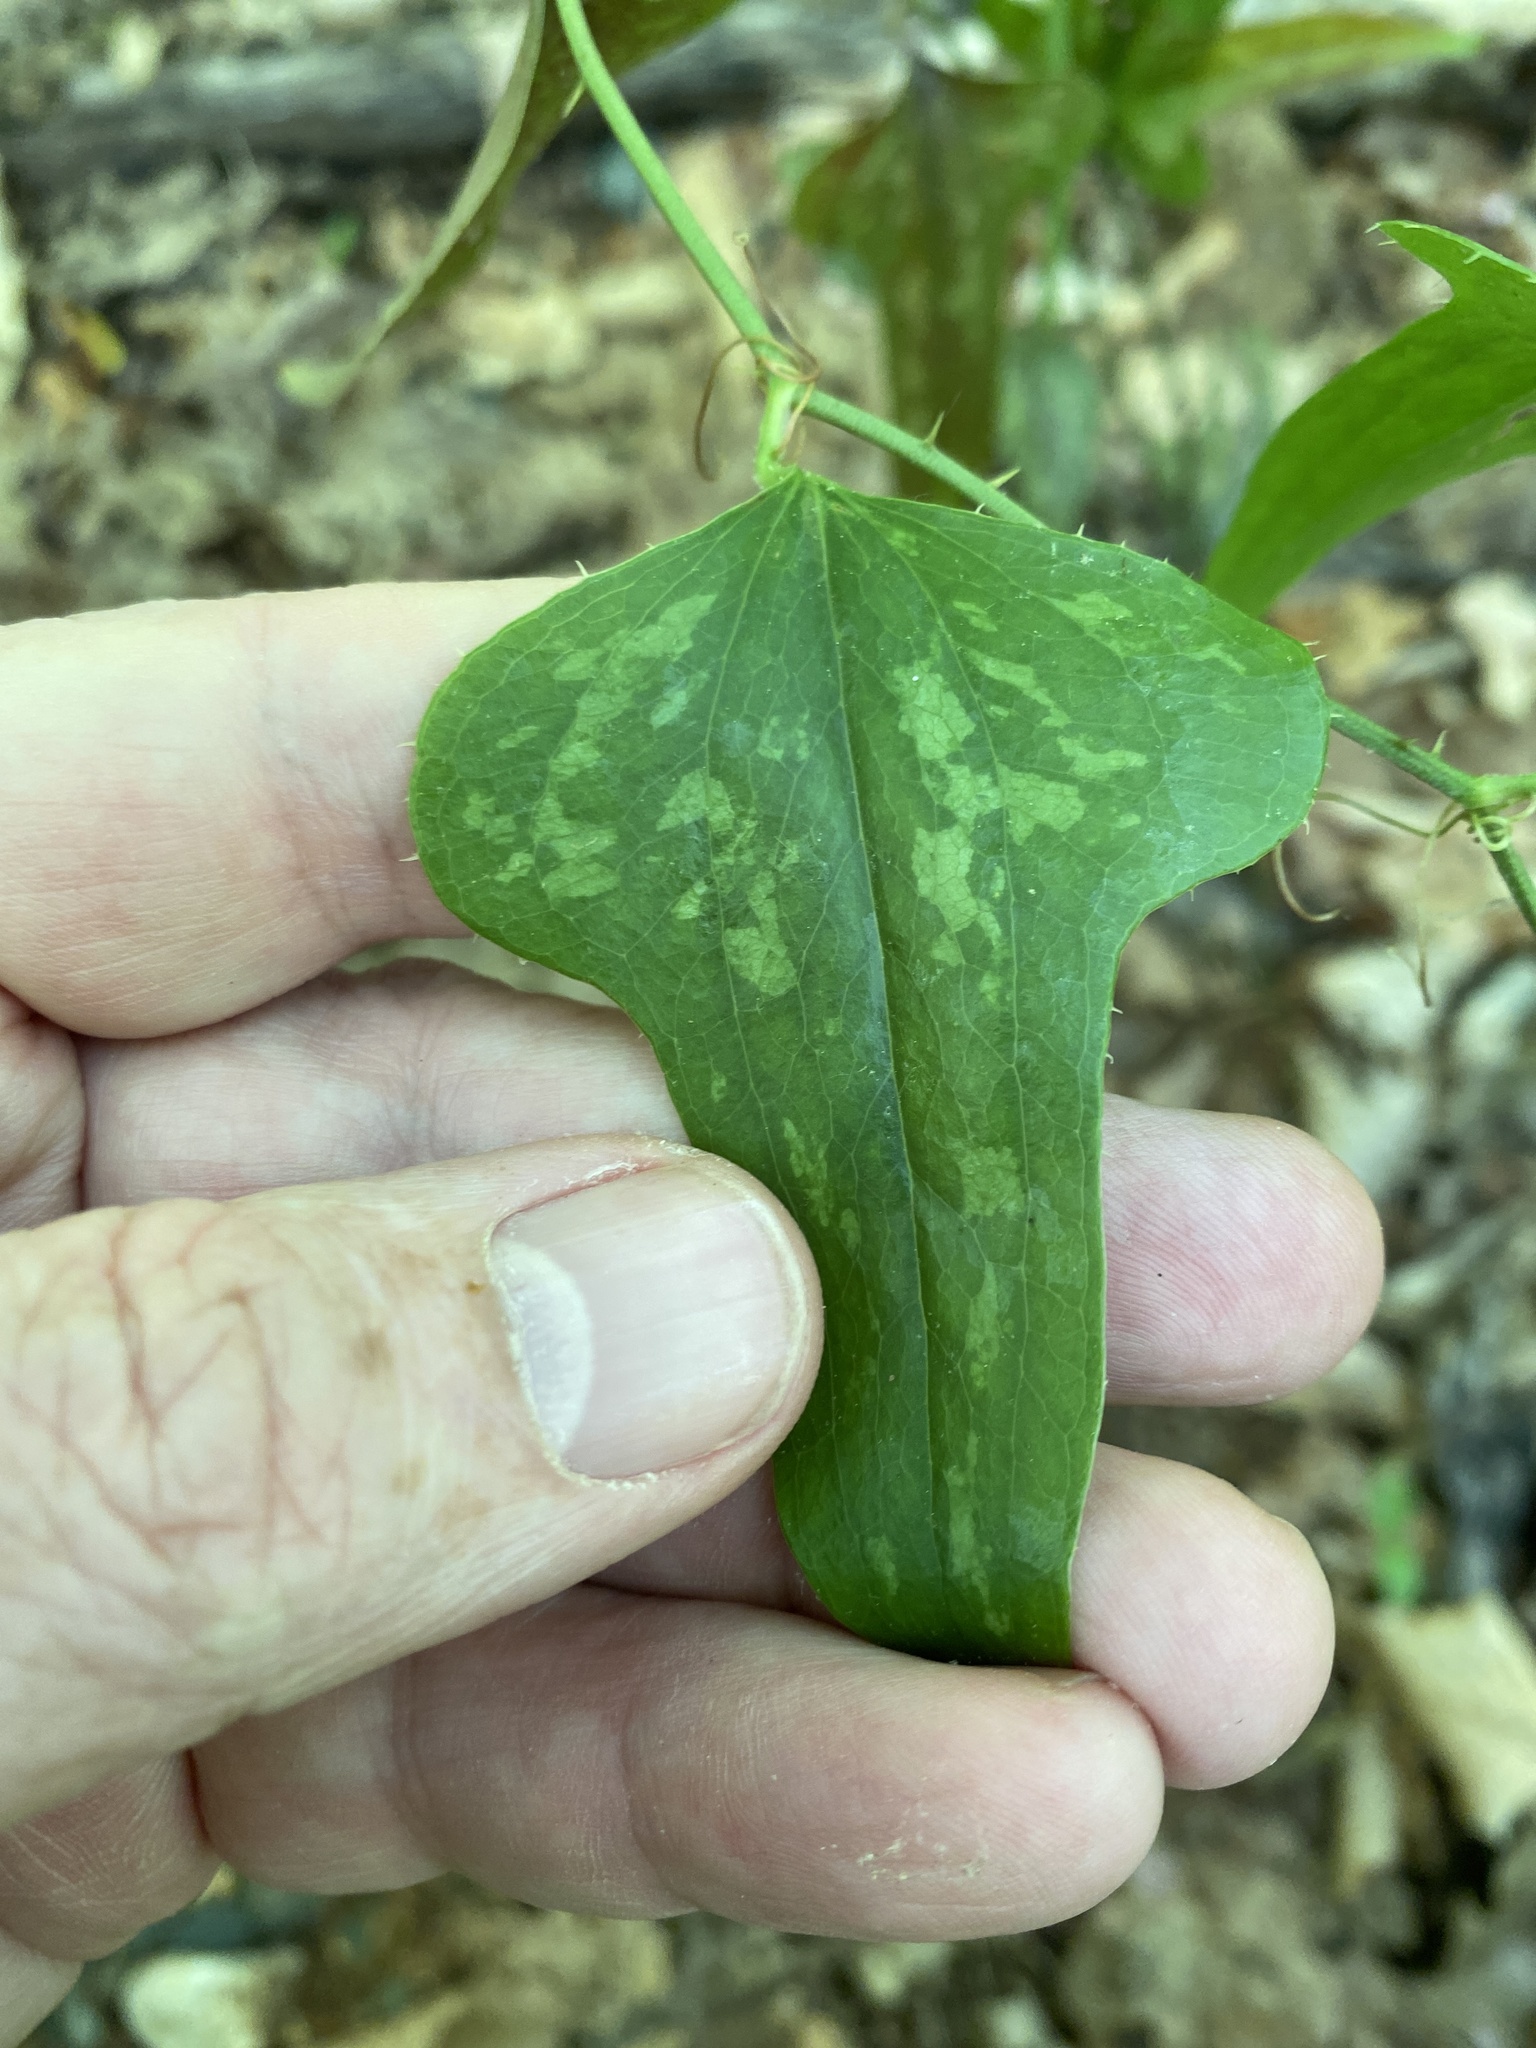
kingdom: Plantae
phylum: Tracheophyta
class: Liliopsida
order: Liliales
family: Smilacaceae
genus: Smilax
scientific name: Smilax bona-nox
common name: Catbrier
